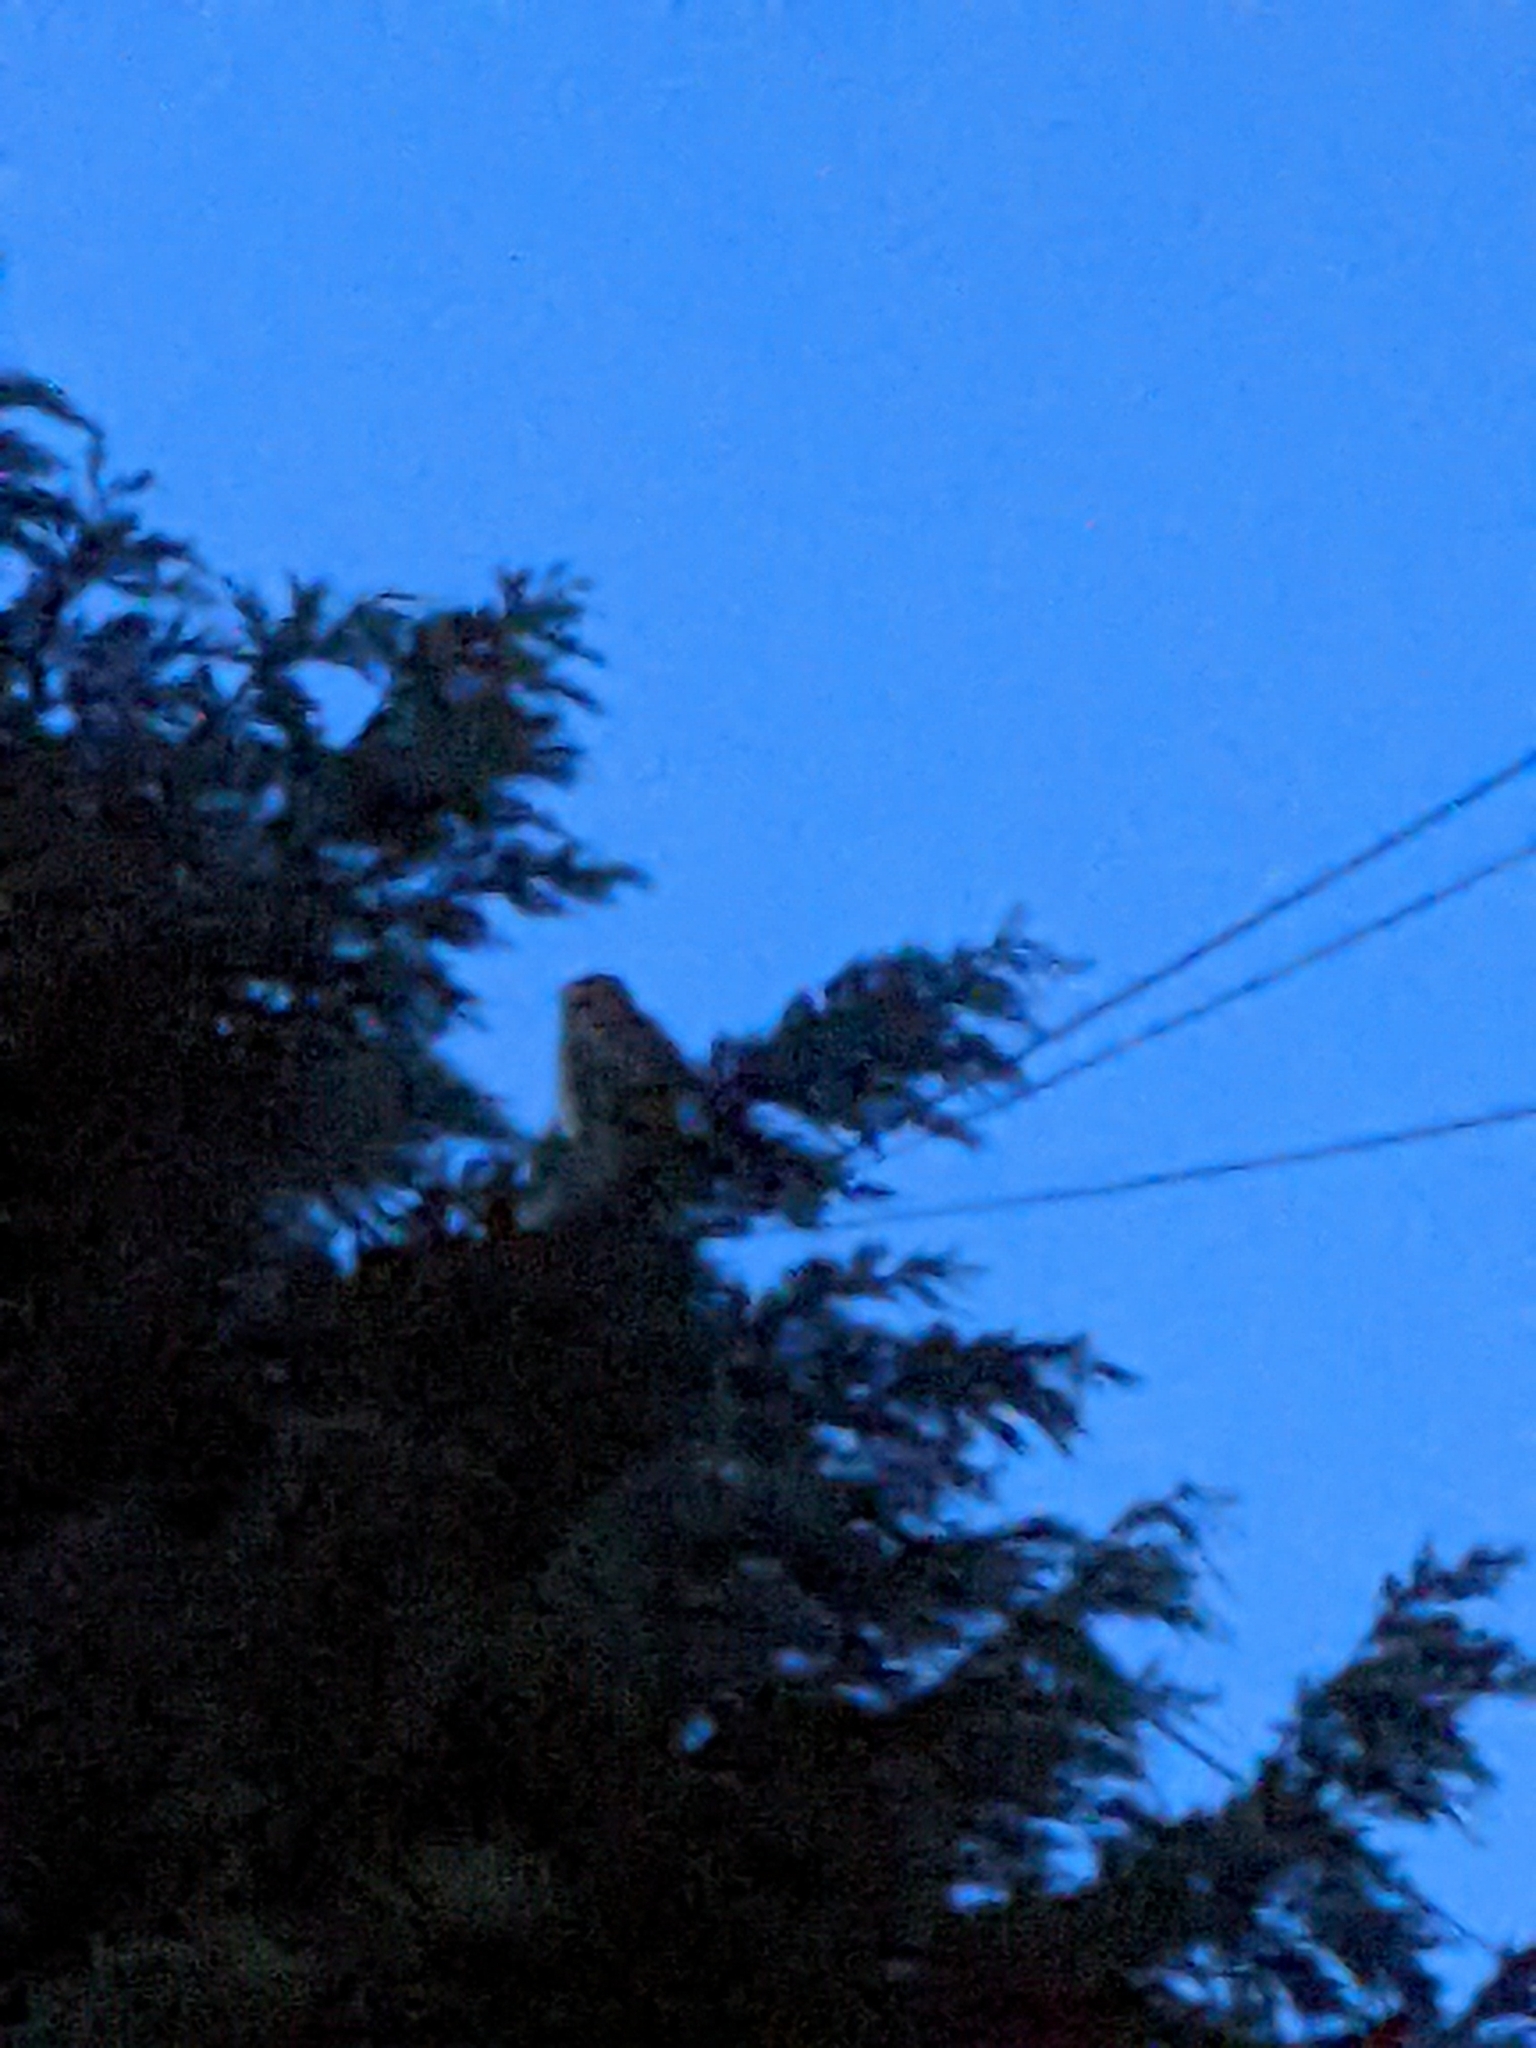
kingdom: Animalia
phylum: Chordata
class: Aves
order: Strigiformes
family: Strigidae
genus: Strix
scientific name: Strix aluco
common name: Tawny owl
